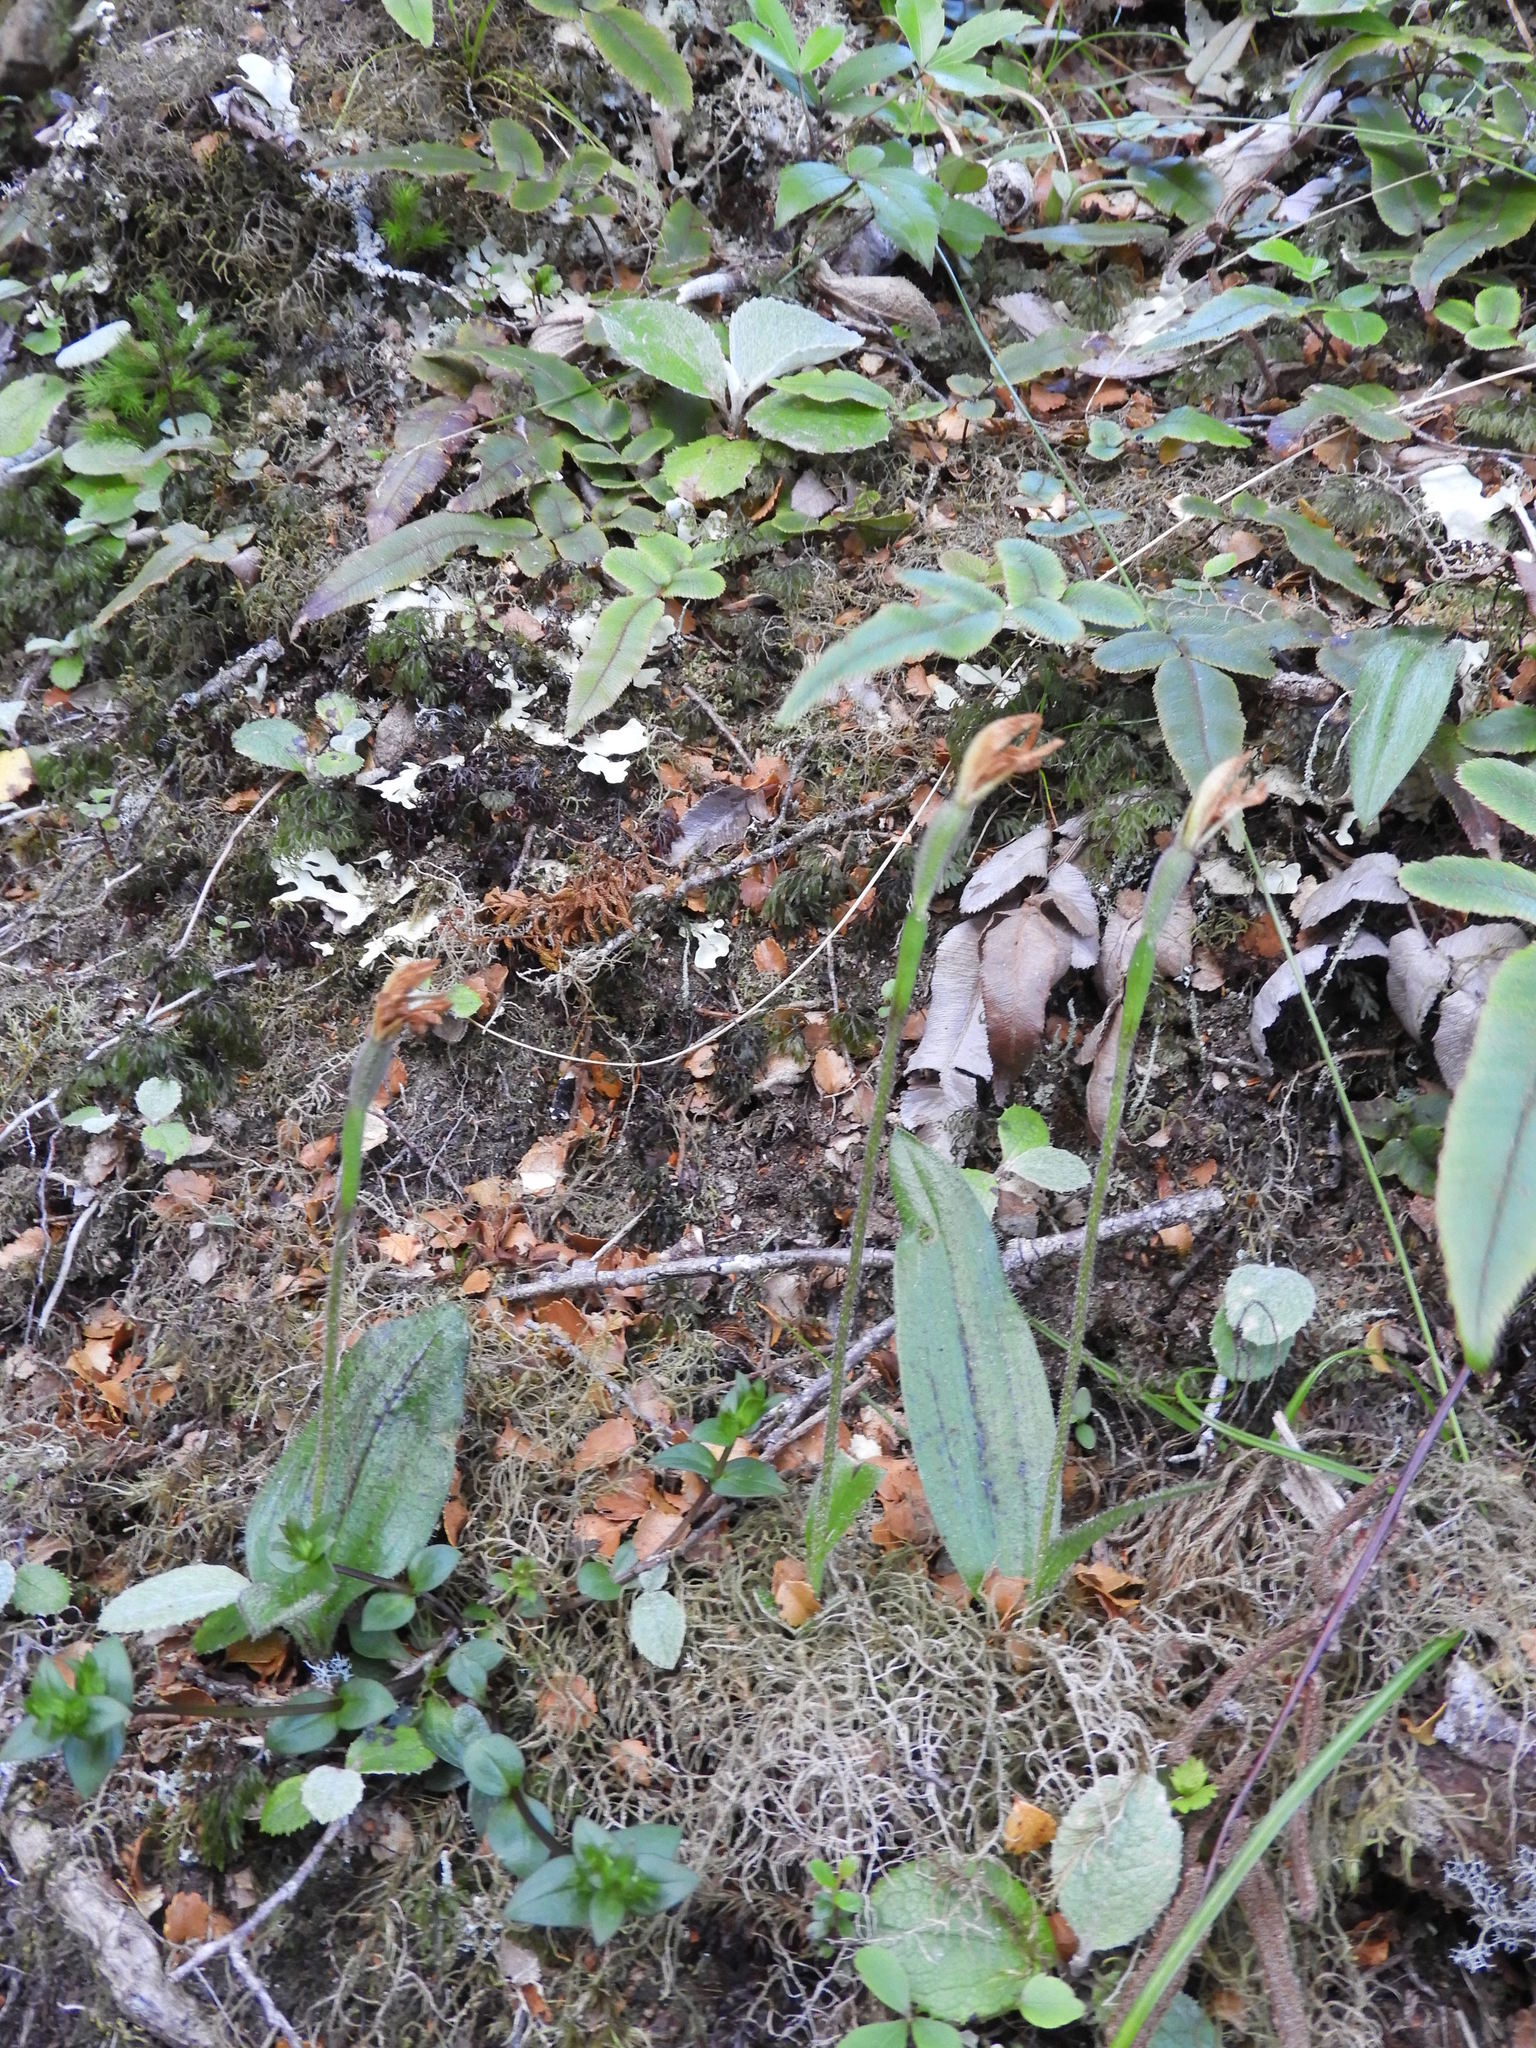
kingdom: Plantae
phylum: Tracheophyta
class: Liliopsida
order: Asparagales
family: Orchidaceae
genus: Aporostylis
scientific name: Aporostylis bifolia
